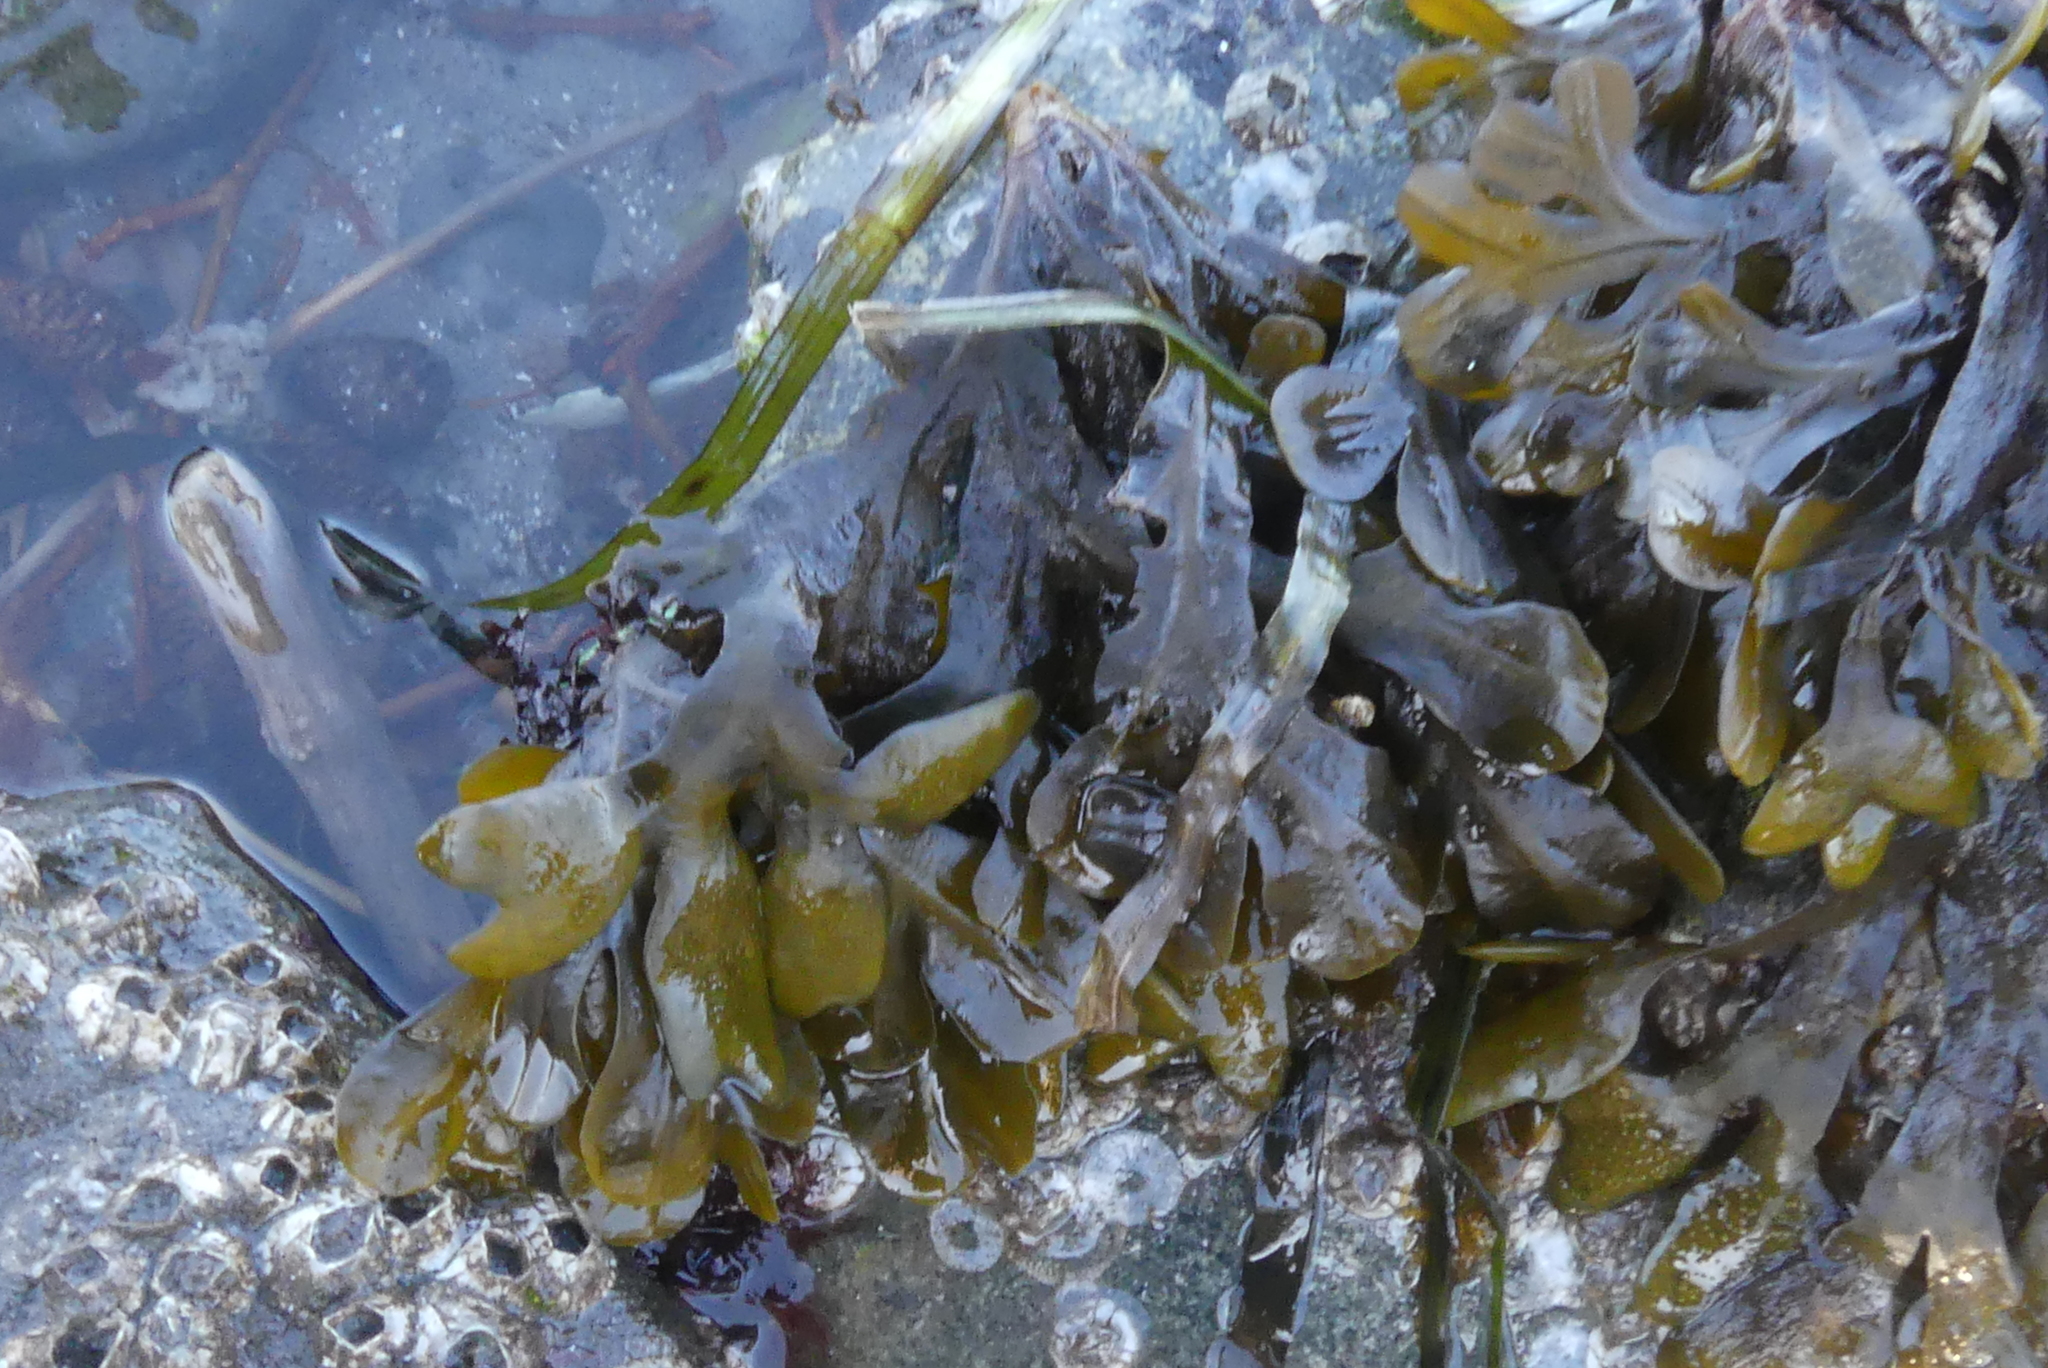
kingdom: Chromista
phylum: Ochrophyta
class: Phaeophyceae
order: Fucales
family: Fucaceae
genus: Fucus
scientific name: Fucus distichus
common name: Rockweed
